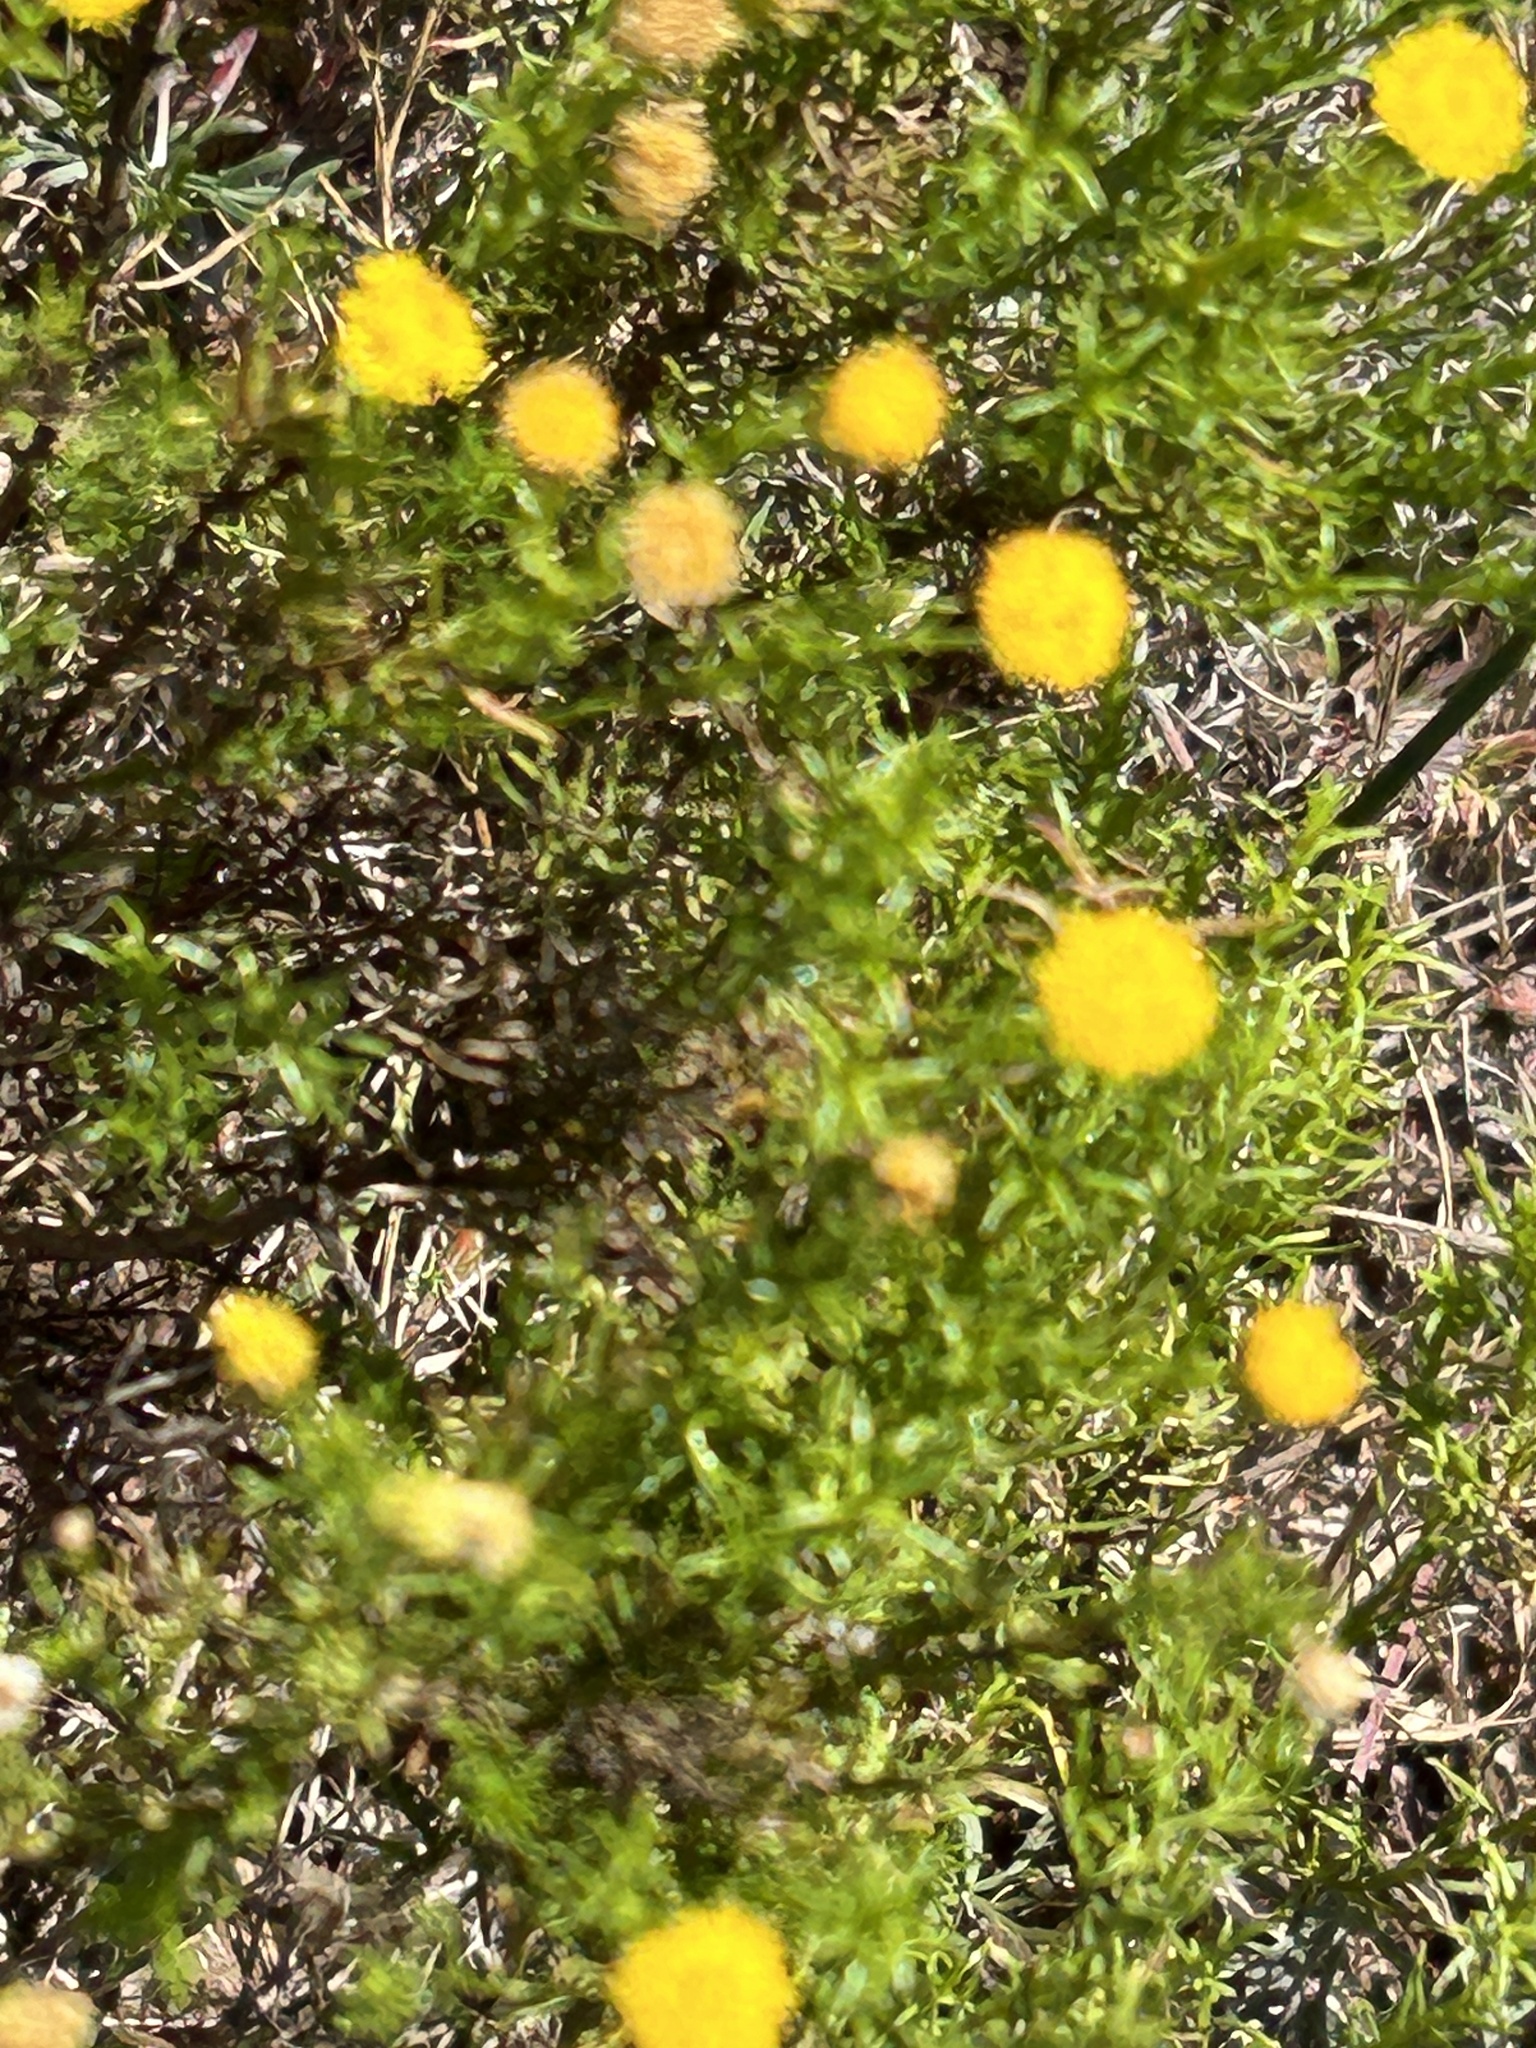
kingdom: Plantae
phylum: Tracheophyta
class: Magnoliopsida
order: Asterales
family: Asteraceae
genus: Chrysocoma
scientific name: Chrysocoma ciliata
